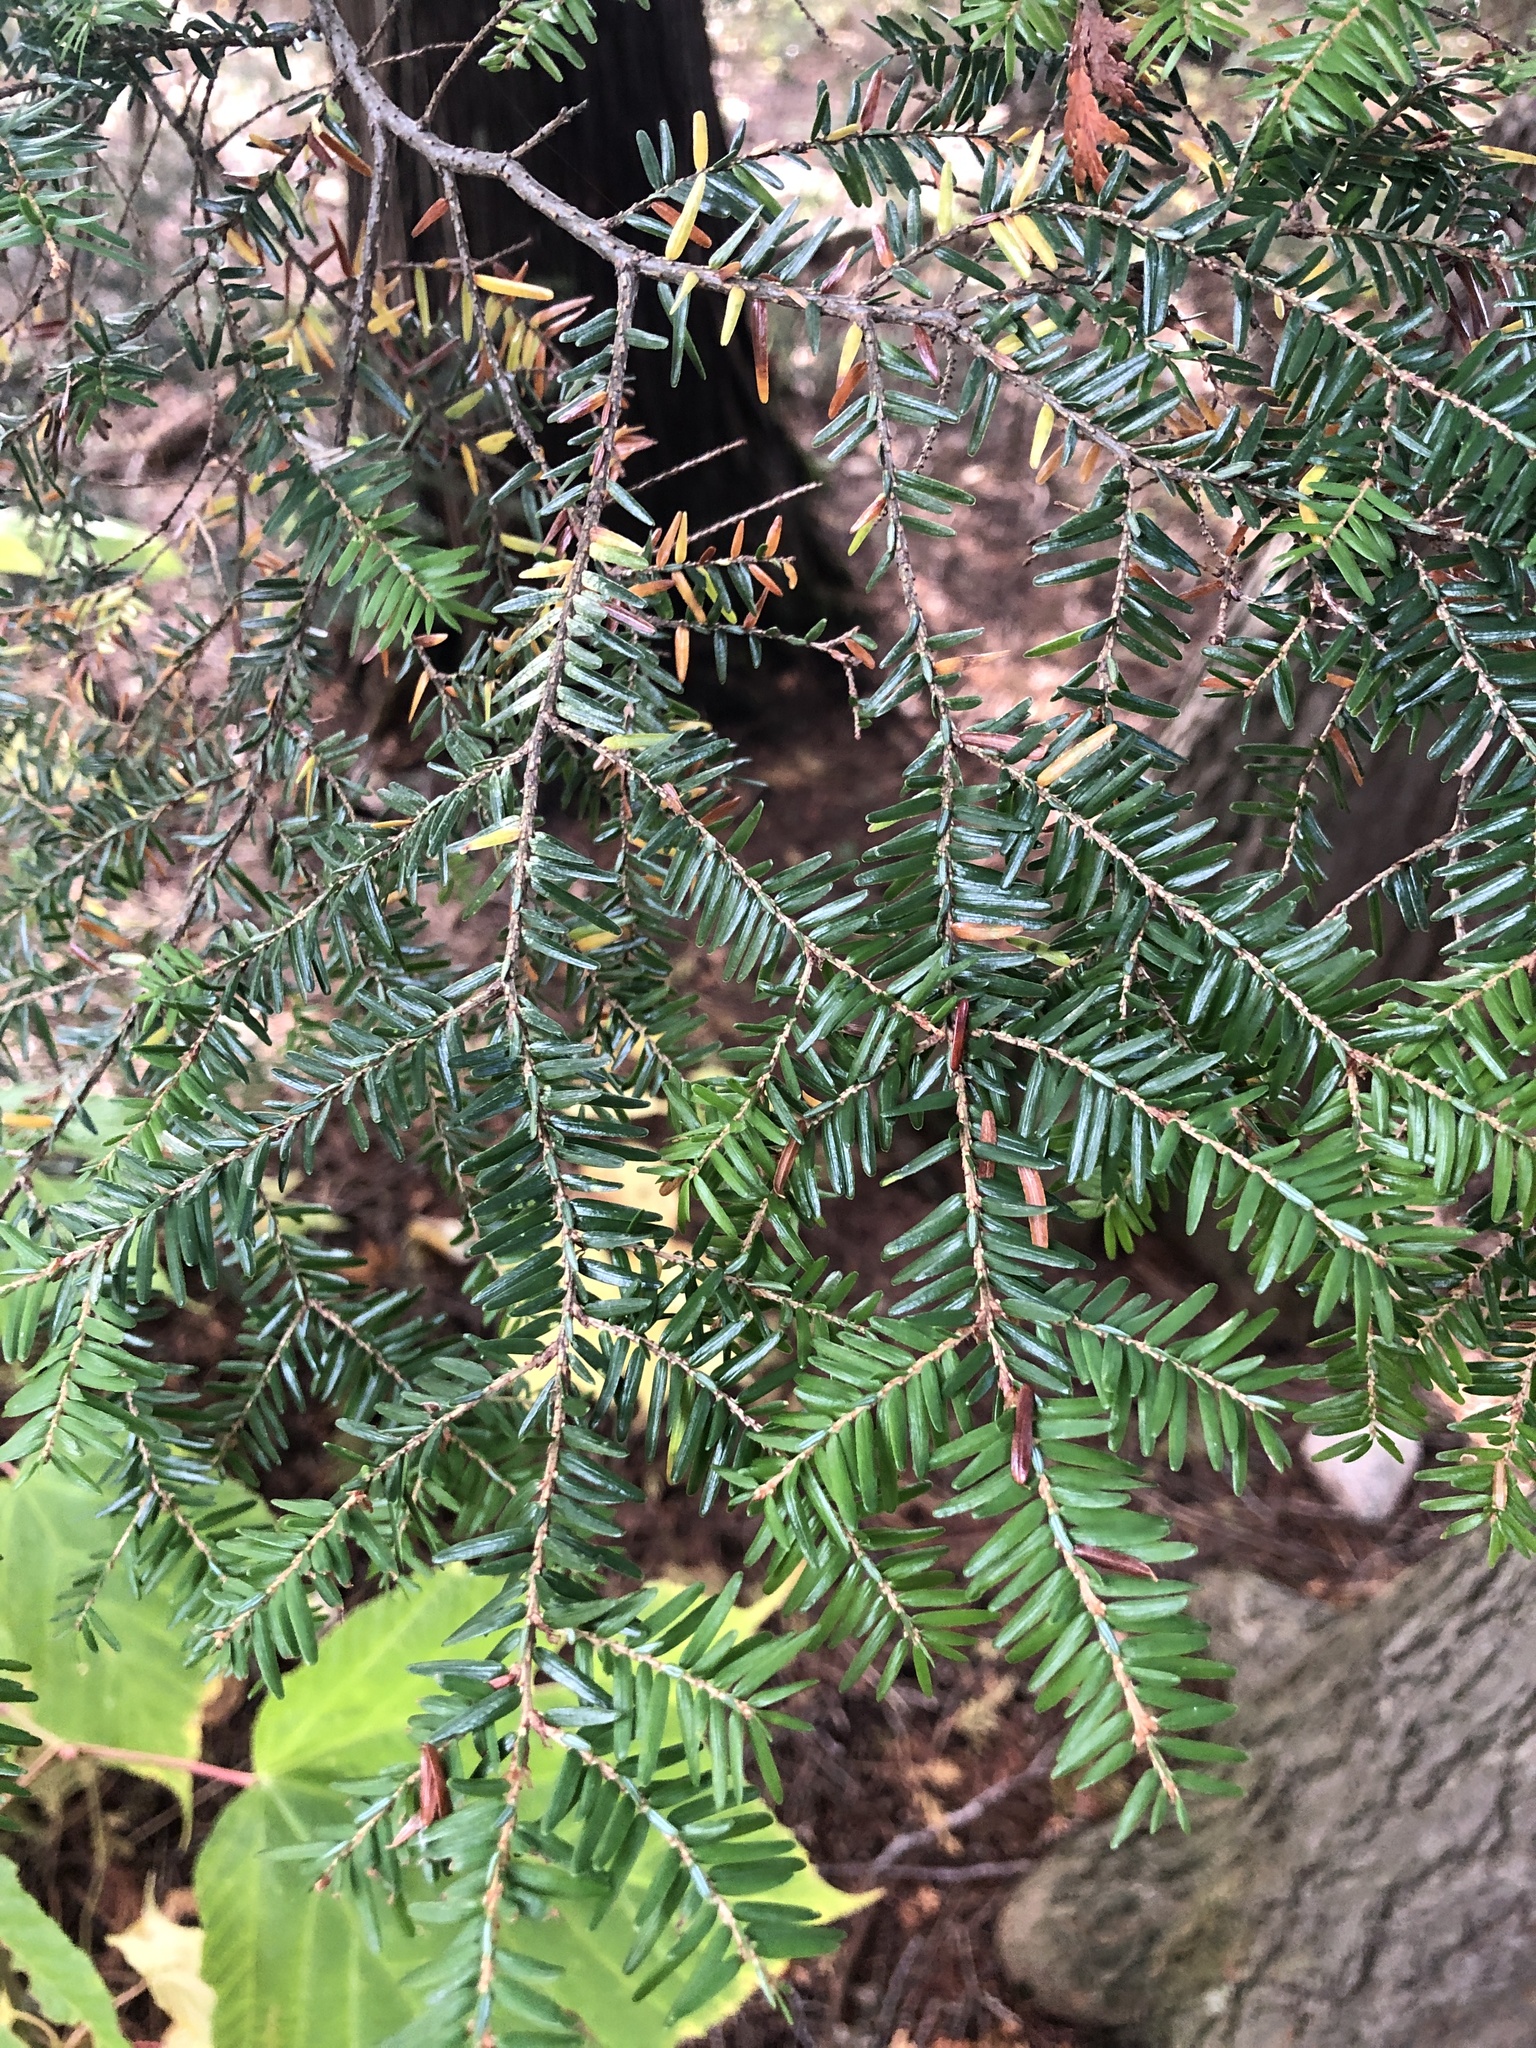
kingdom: Plantae
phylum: Tracheophyta
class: Pinopsida
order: Pinales
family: Pinaceae
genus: Tsuga
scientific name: Tsuga canadensis
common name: Eastern hemlock
